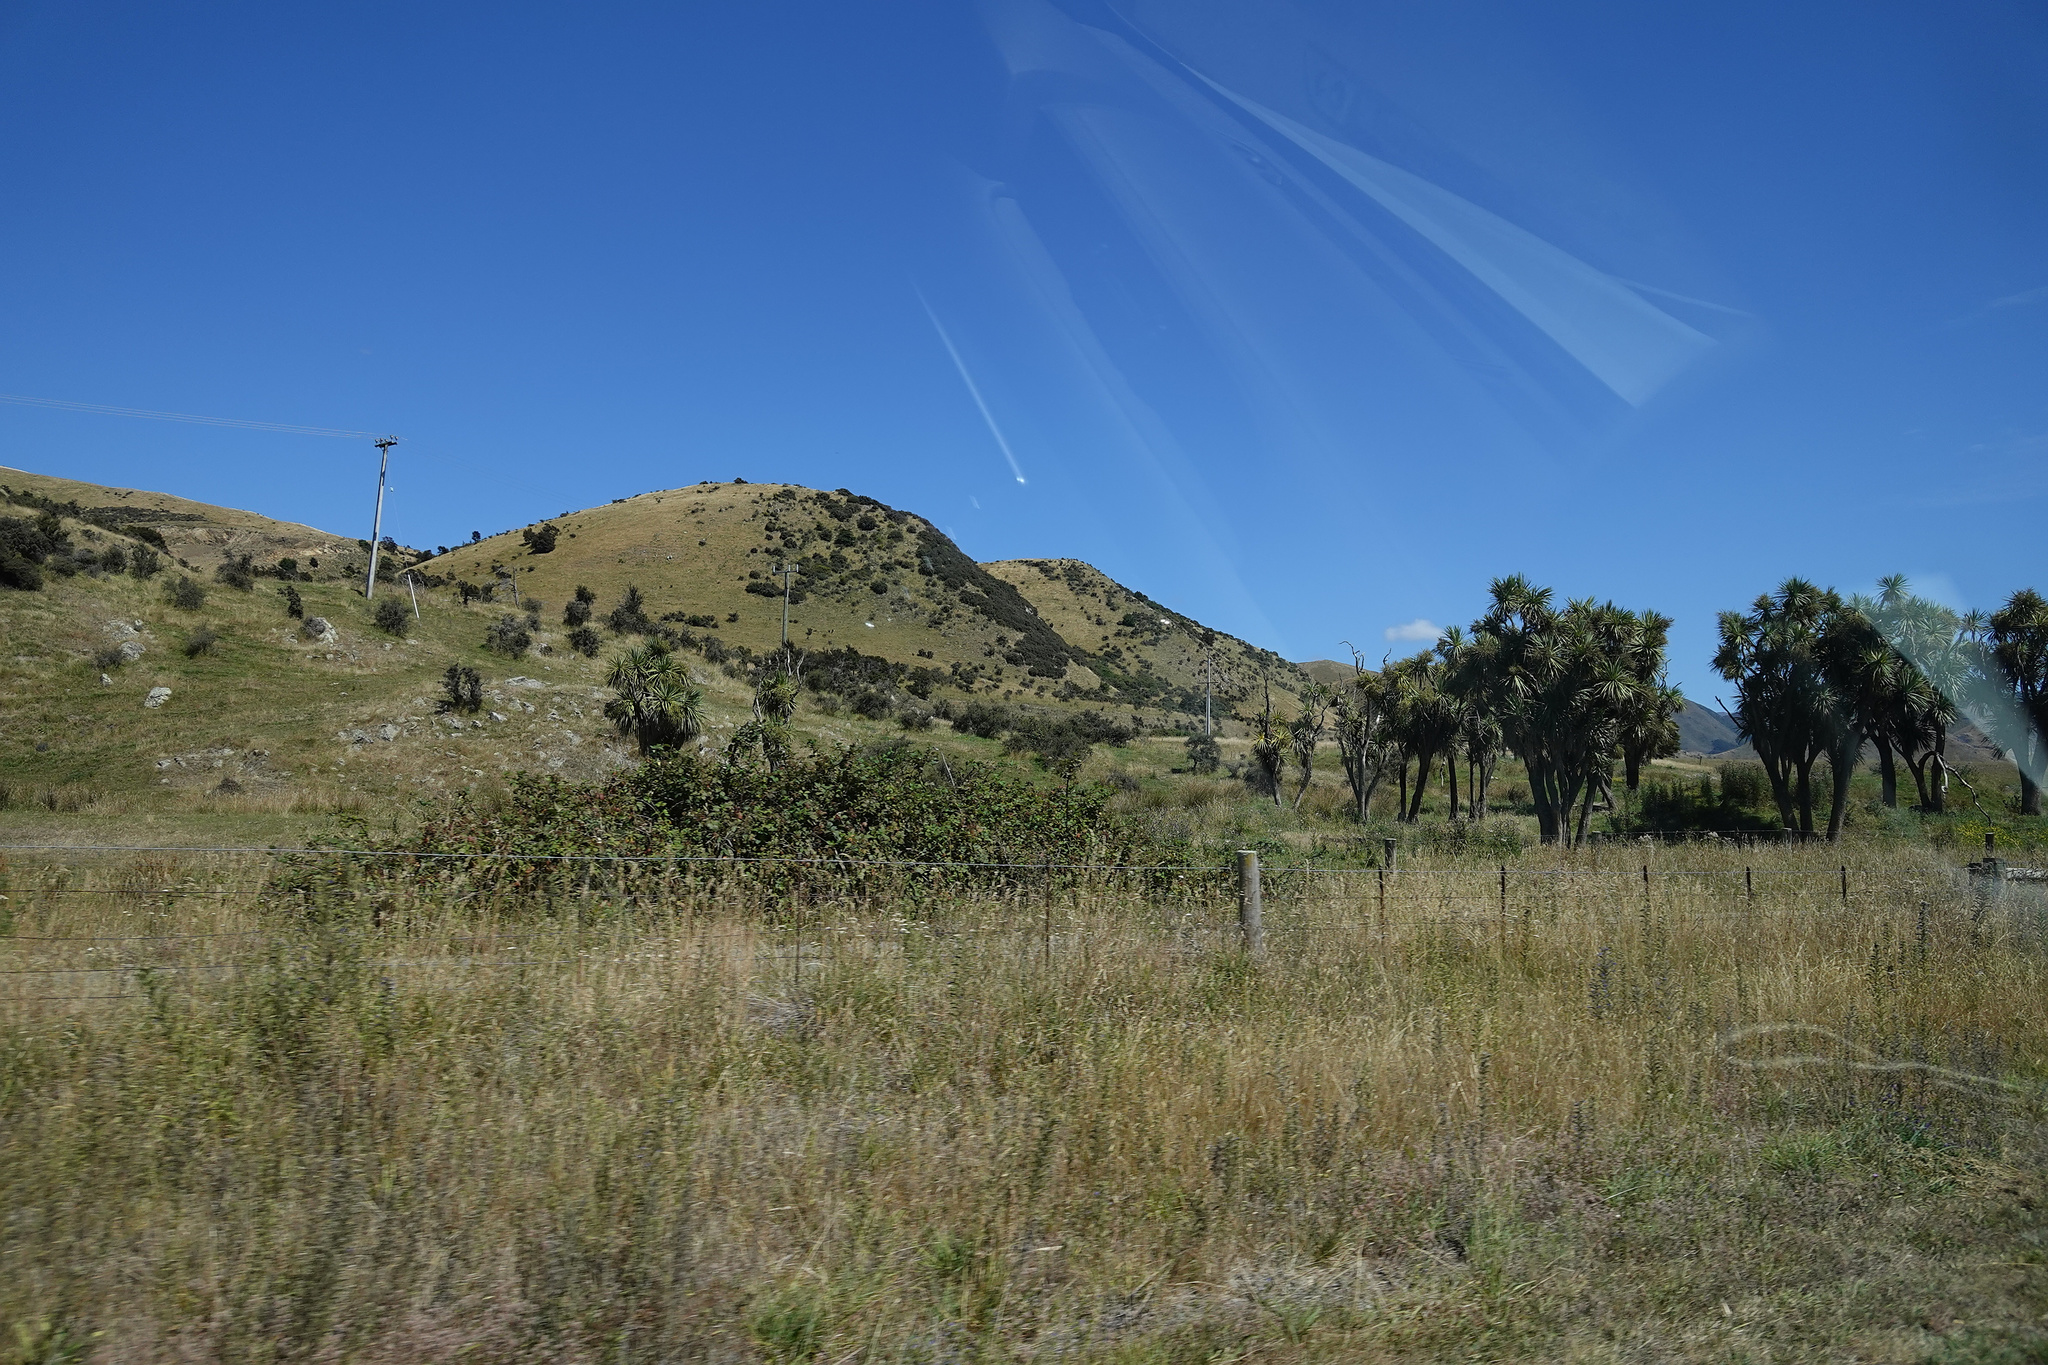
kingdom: Plantae
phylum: Tracheophyta
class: Liliopsida
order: Asparagales
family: Asparagaceae
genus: Cordyline
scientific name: Cordyline australis
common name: Cabbage-palm
